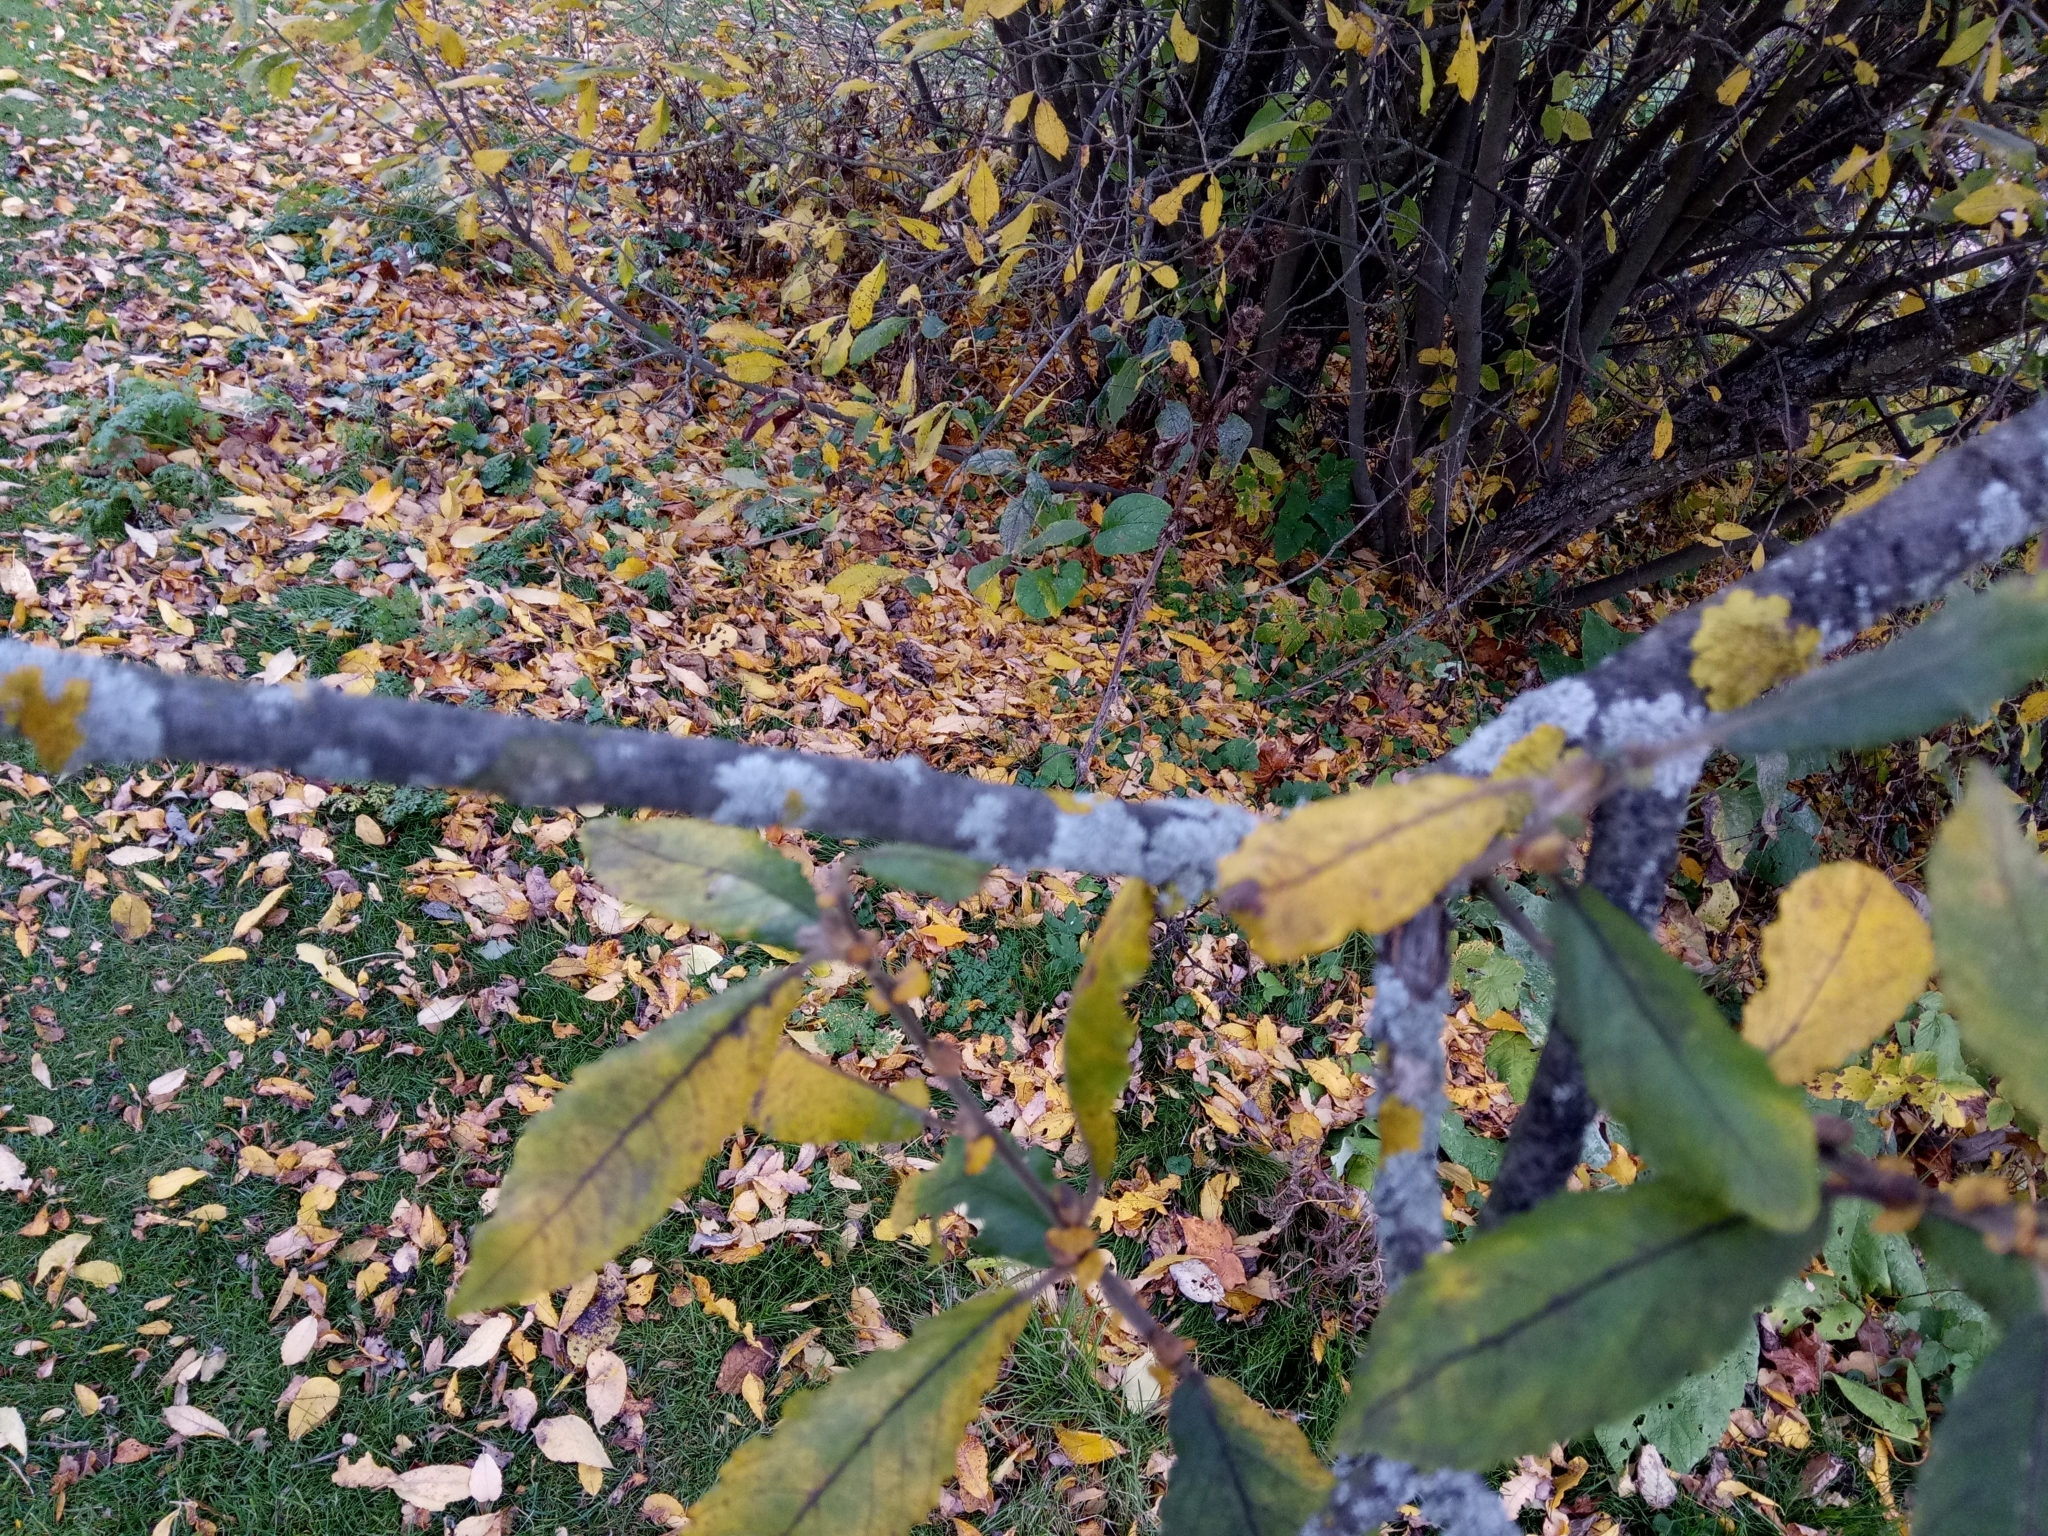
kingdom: Plantae
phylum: Tracheophyta
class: Magnoliopsida
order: Malpighiales
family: Salicaceae
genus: Salix
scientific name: Salix caprea
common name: Goat willow
